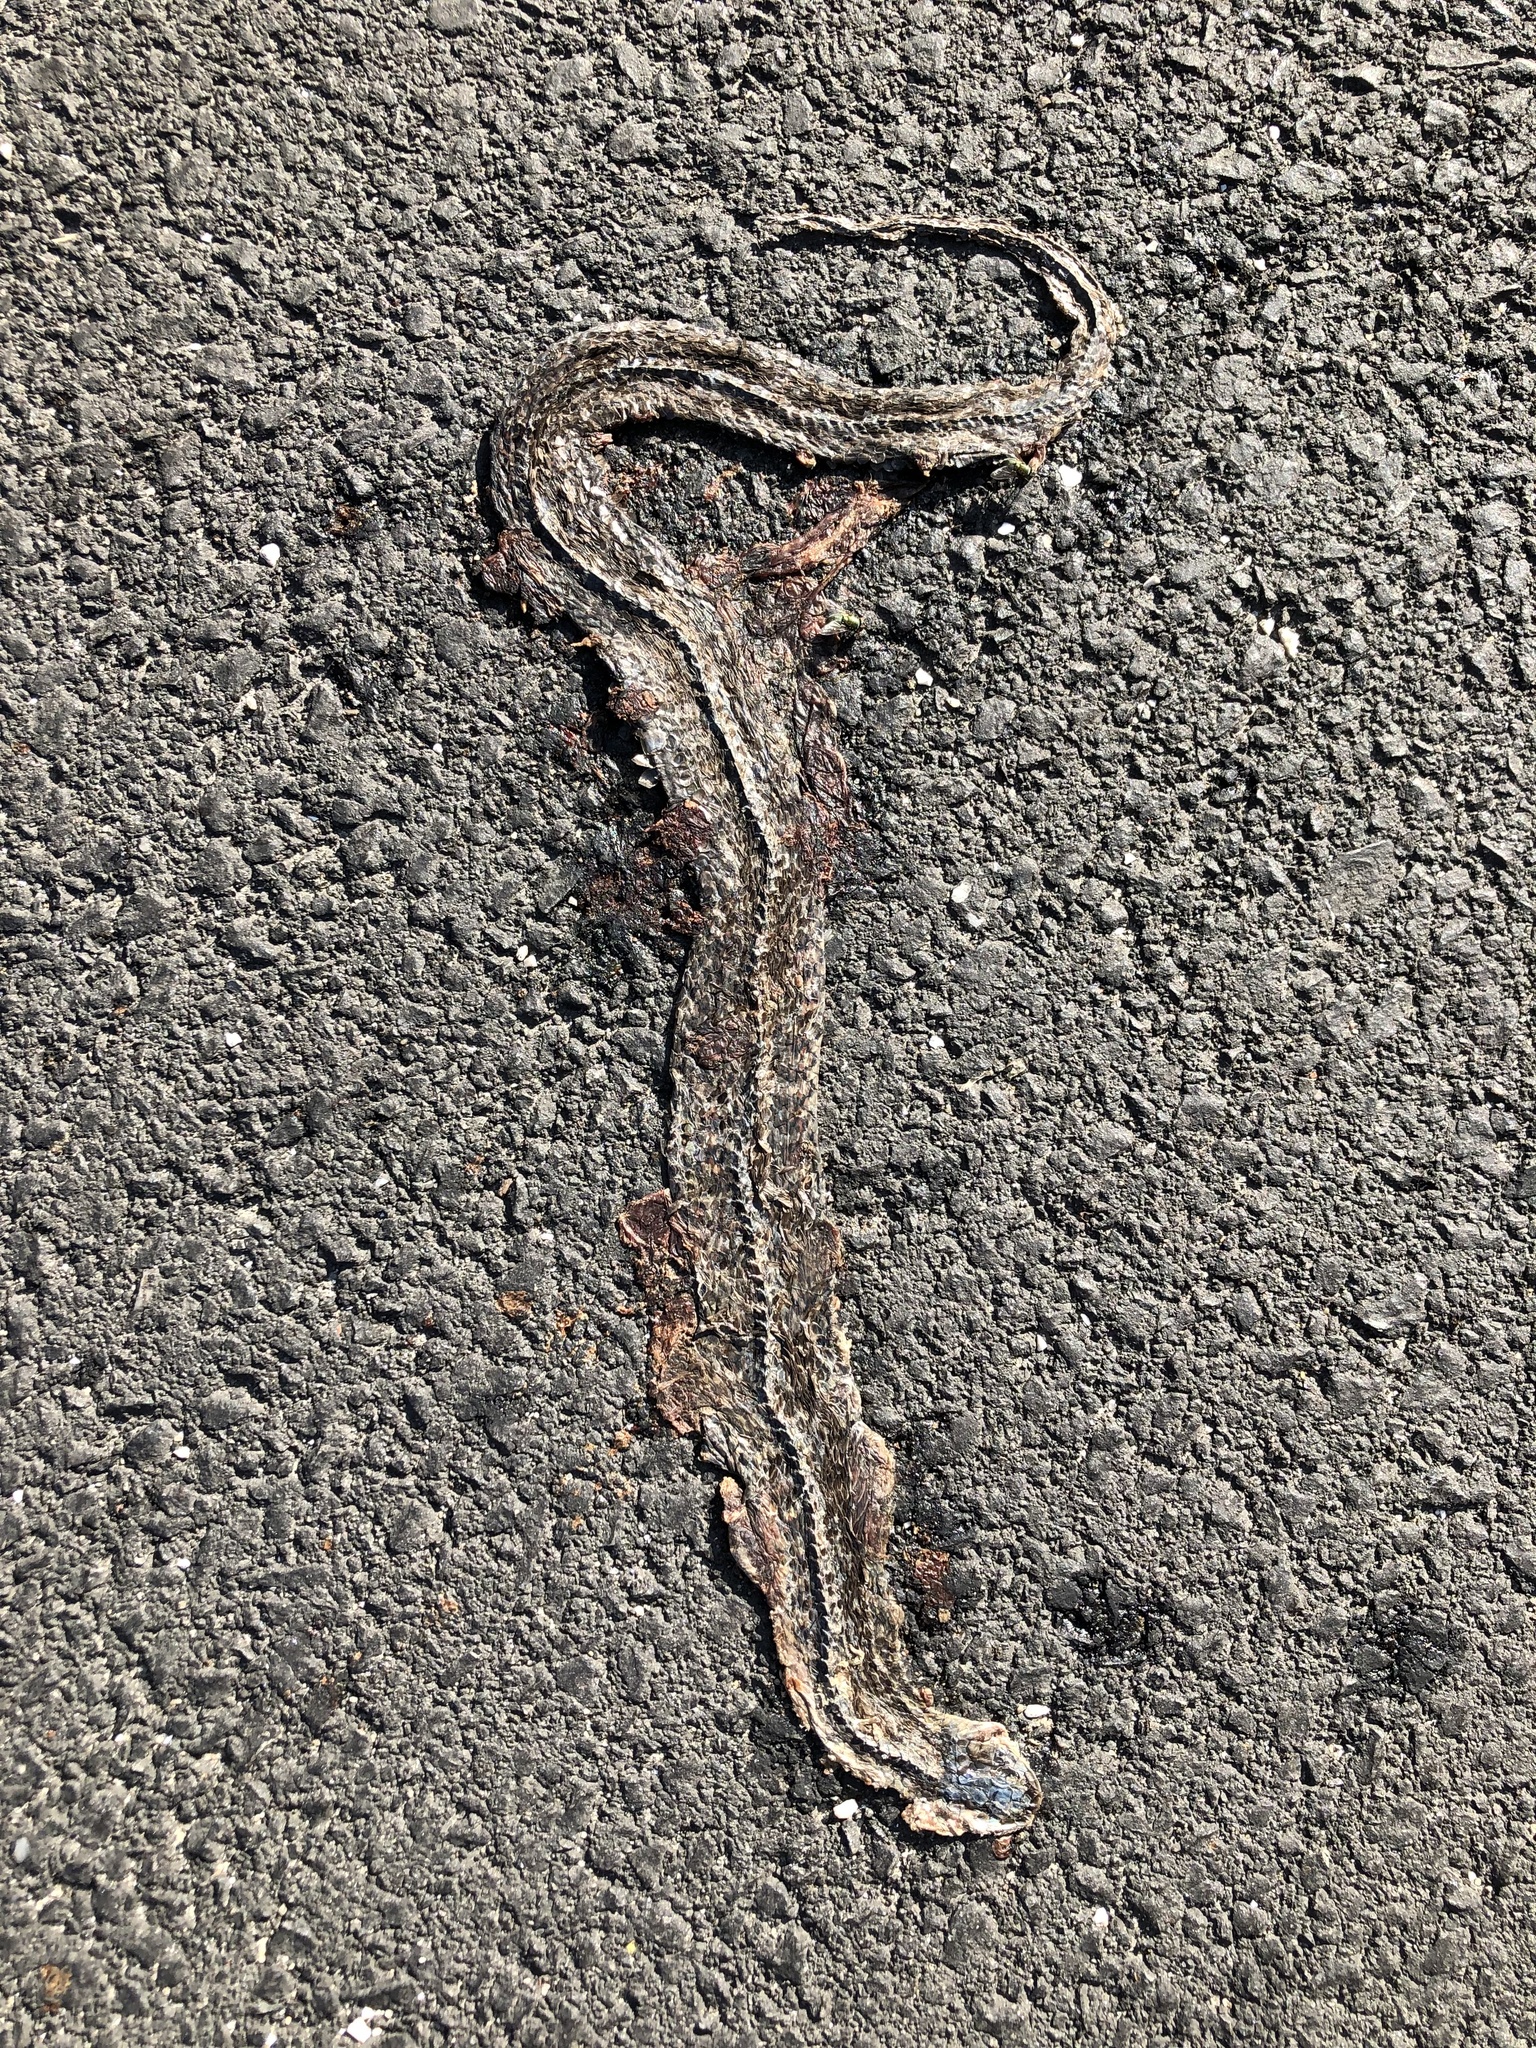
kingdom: Animalia
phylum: Chordata
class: Squamata
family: Colubridae
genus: Thamnophis
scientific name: Thamnophis sirtalis
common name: Common garter snake
